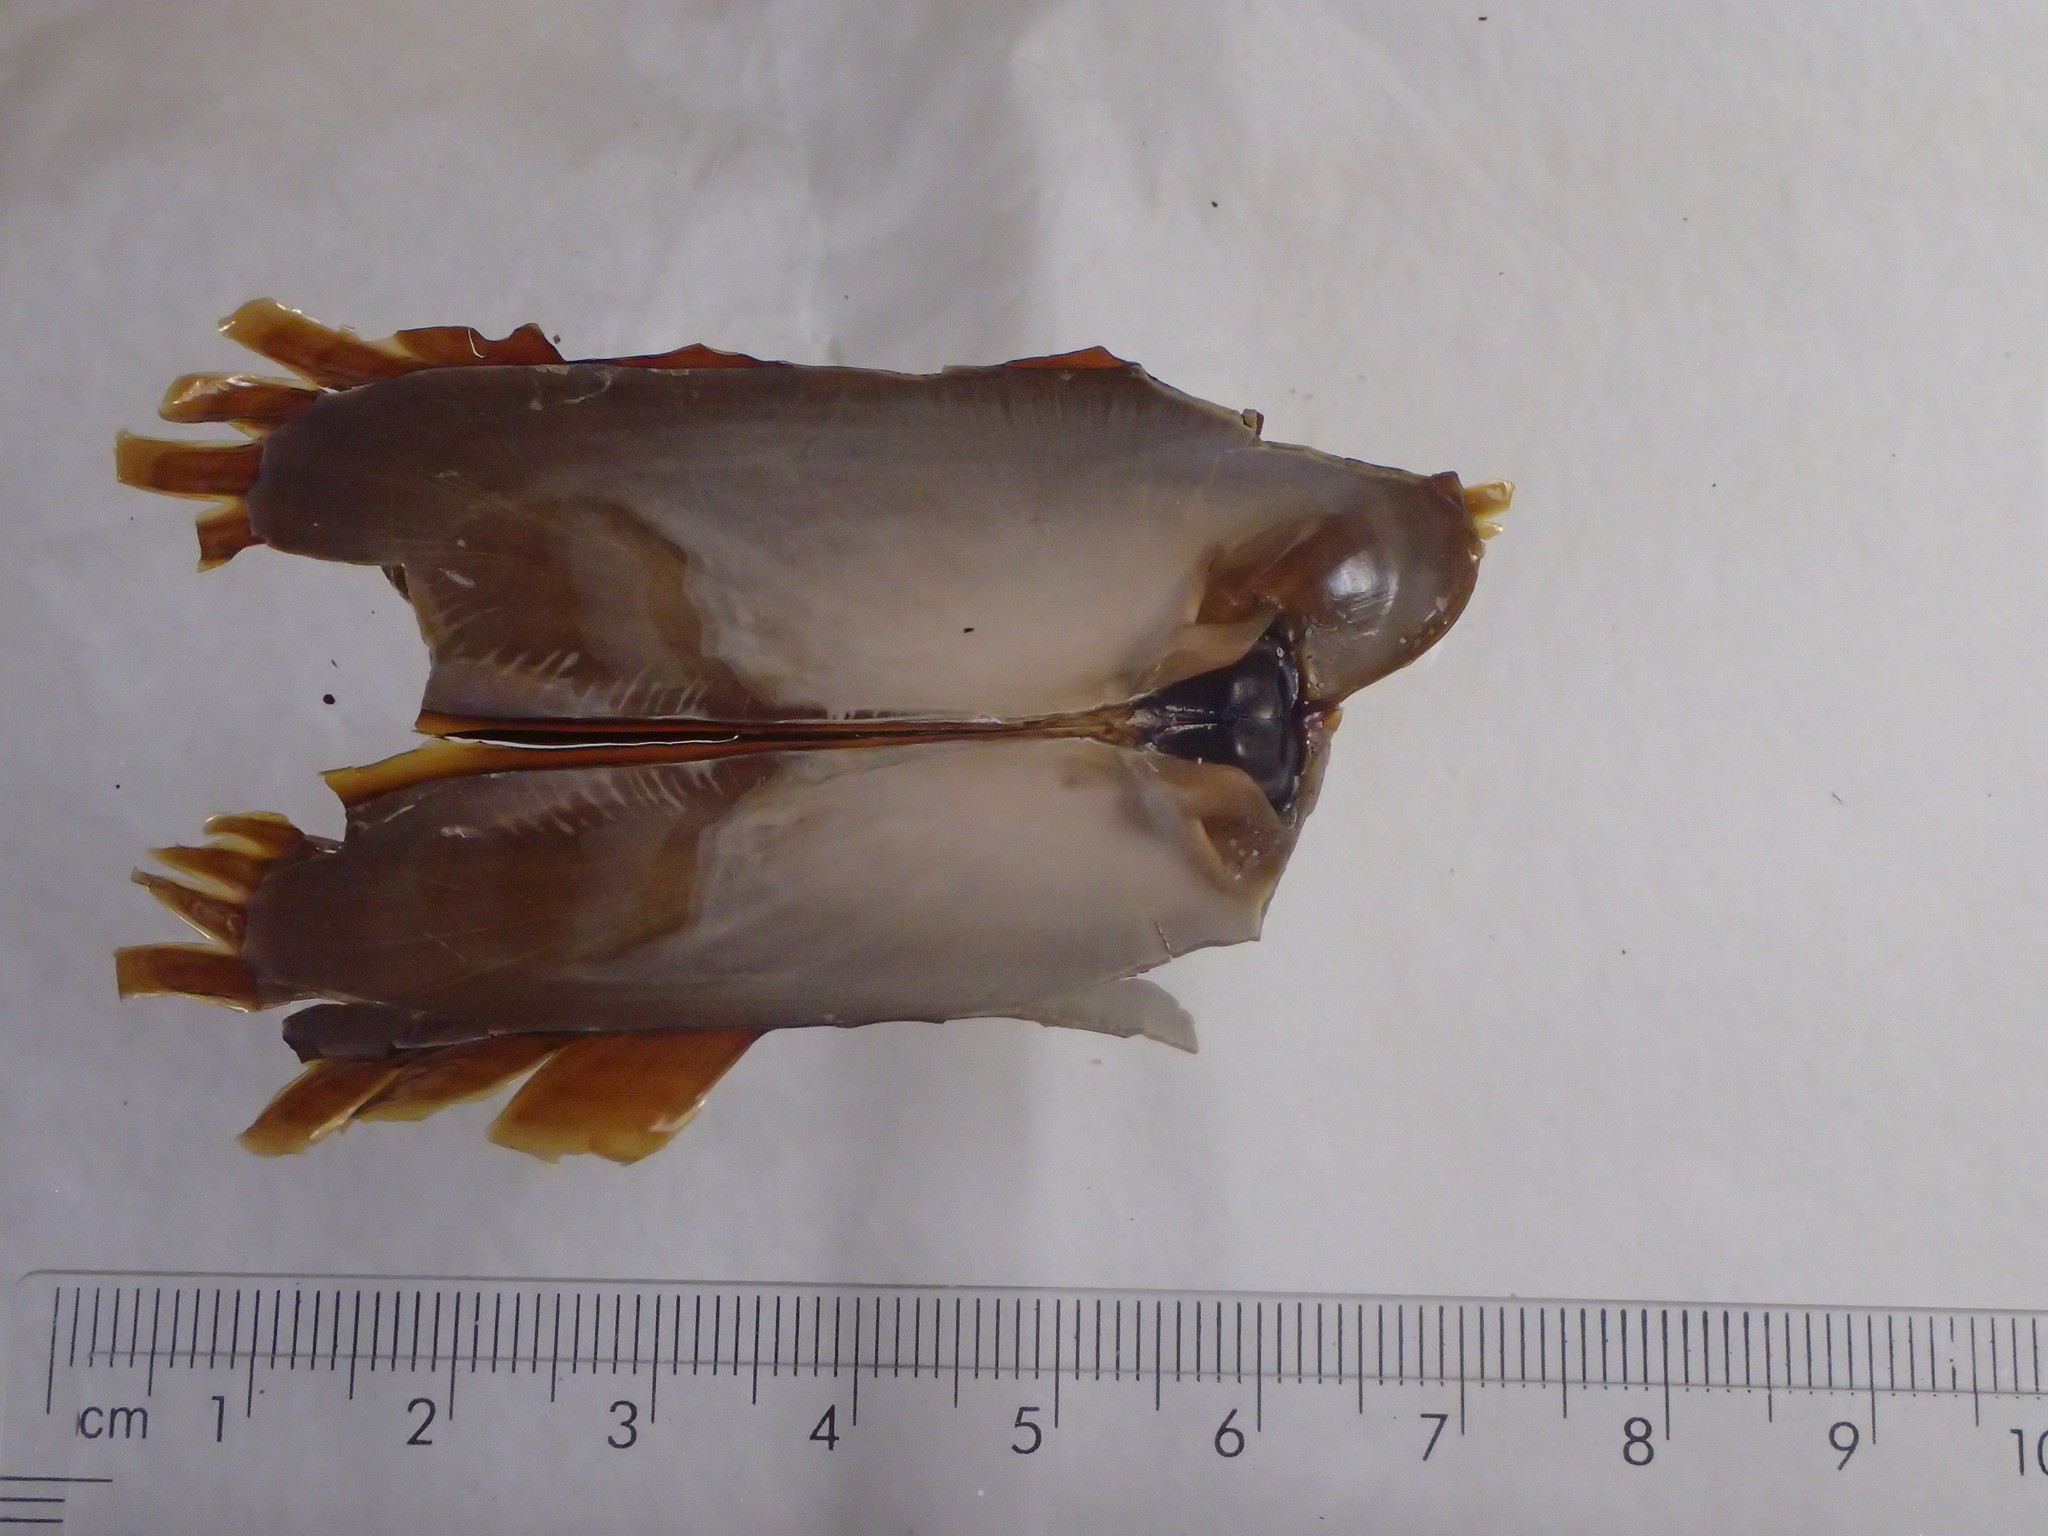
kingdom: Animalia
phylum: Mollusca
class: Bivalvia
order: Solemyida
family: Solemyidae
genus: Petrasma
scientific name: Petrasma borealis
